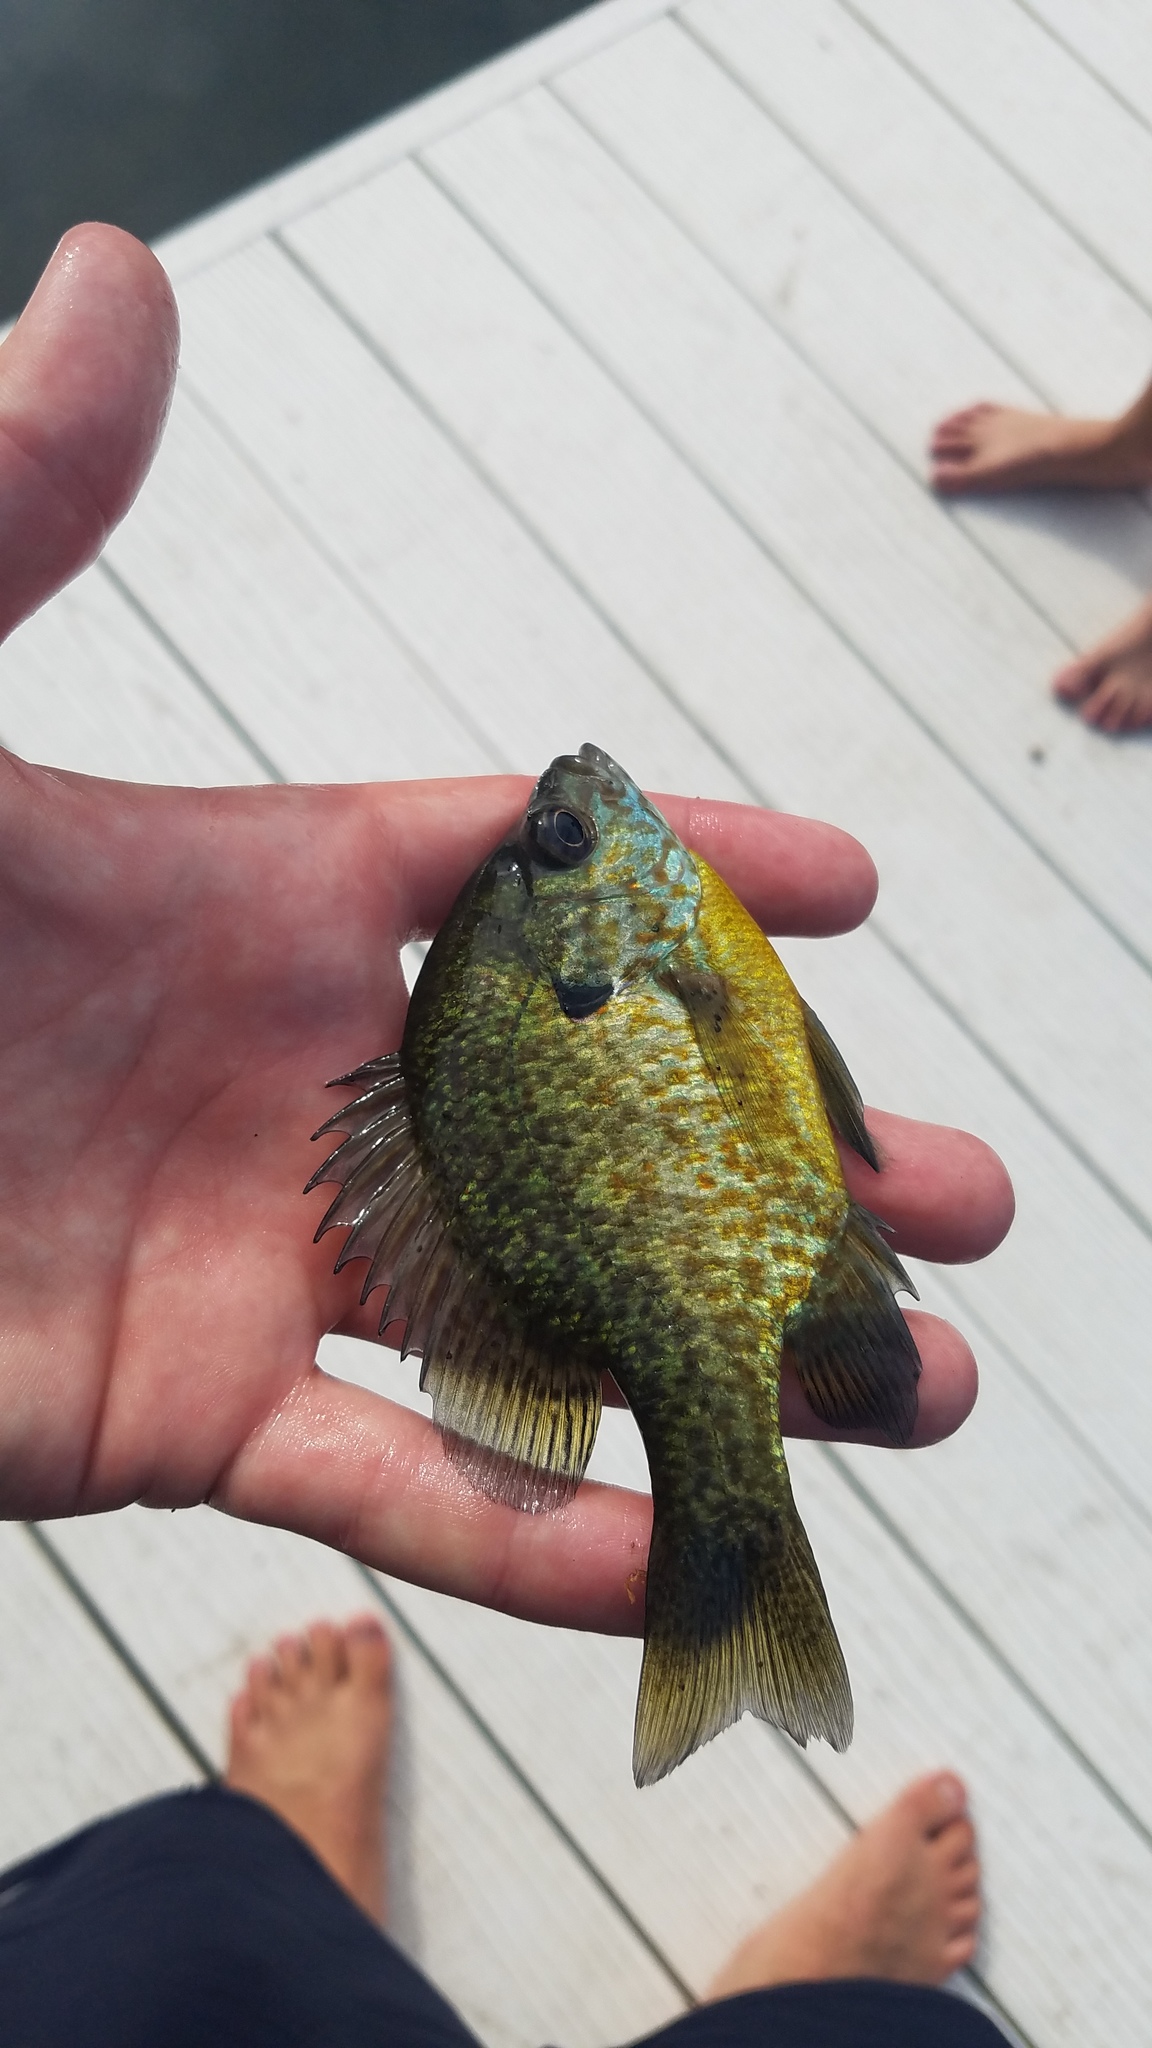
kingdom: Animalia
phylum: Chordata
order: Perciformes
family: Centrarchidae
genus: Lepomis
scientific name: Lepomis
